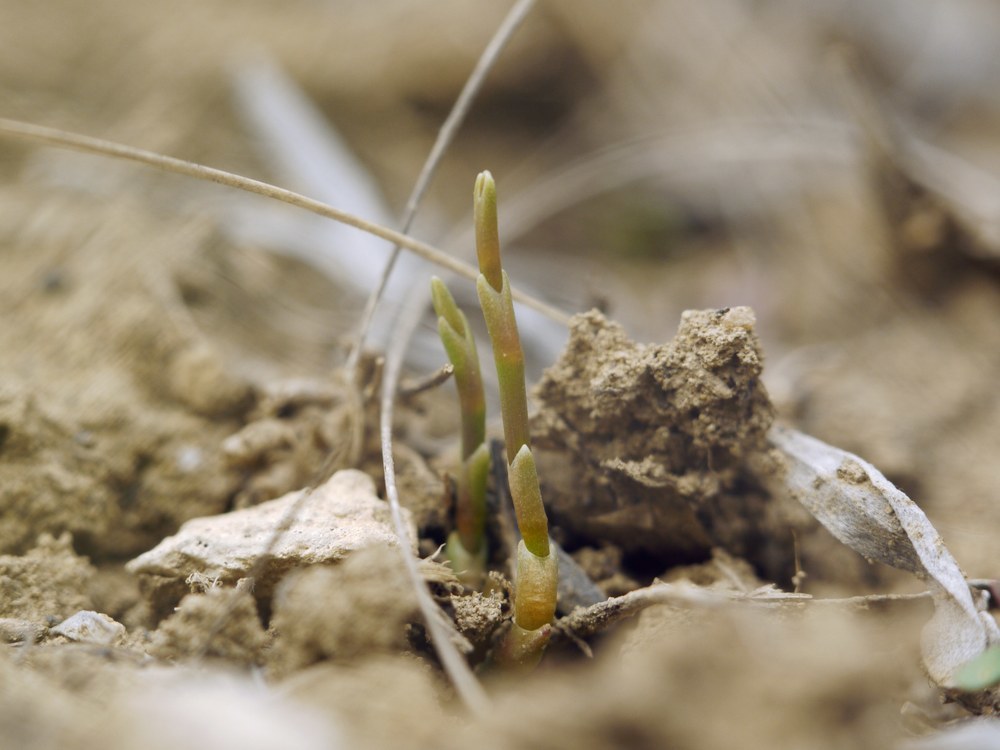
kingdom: Plantae
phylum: Tracheophyta
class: Gnetopsida
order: Ephedrales
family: Ephedraceae
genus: Ephedra
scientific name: Ephedra distachya
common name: Sea grape
